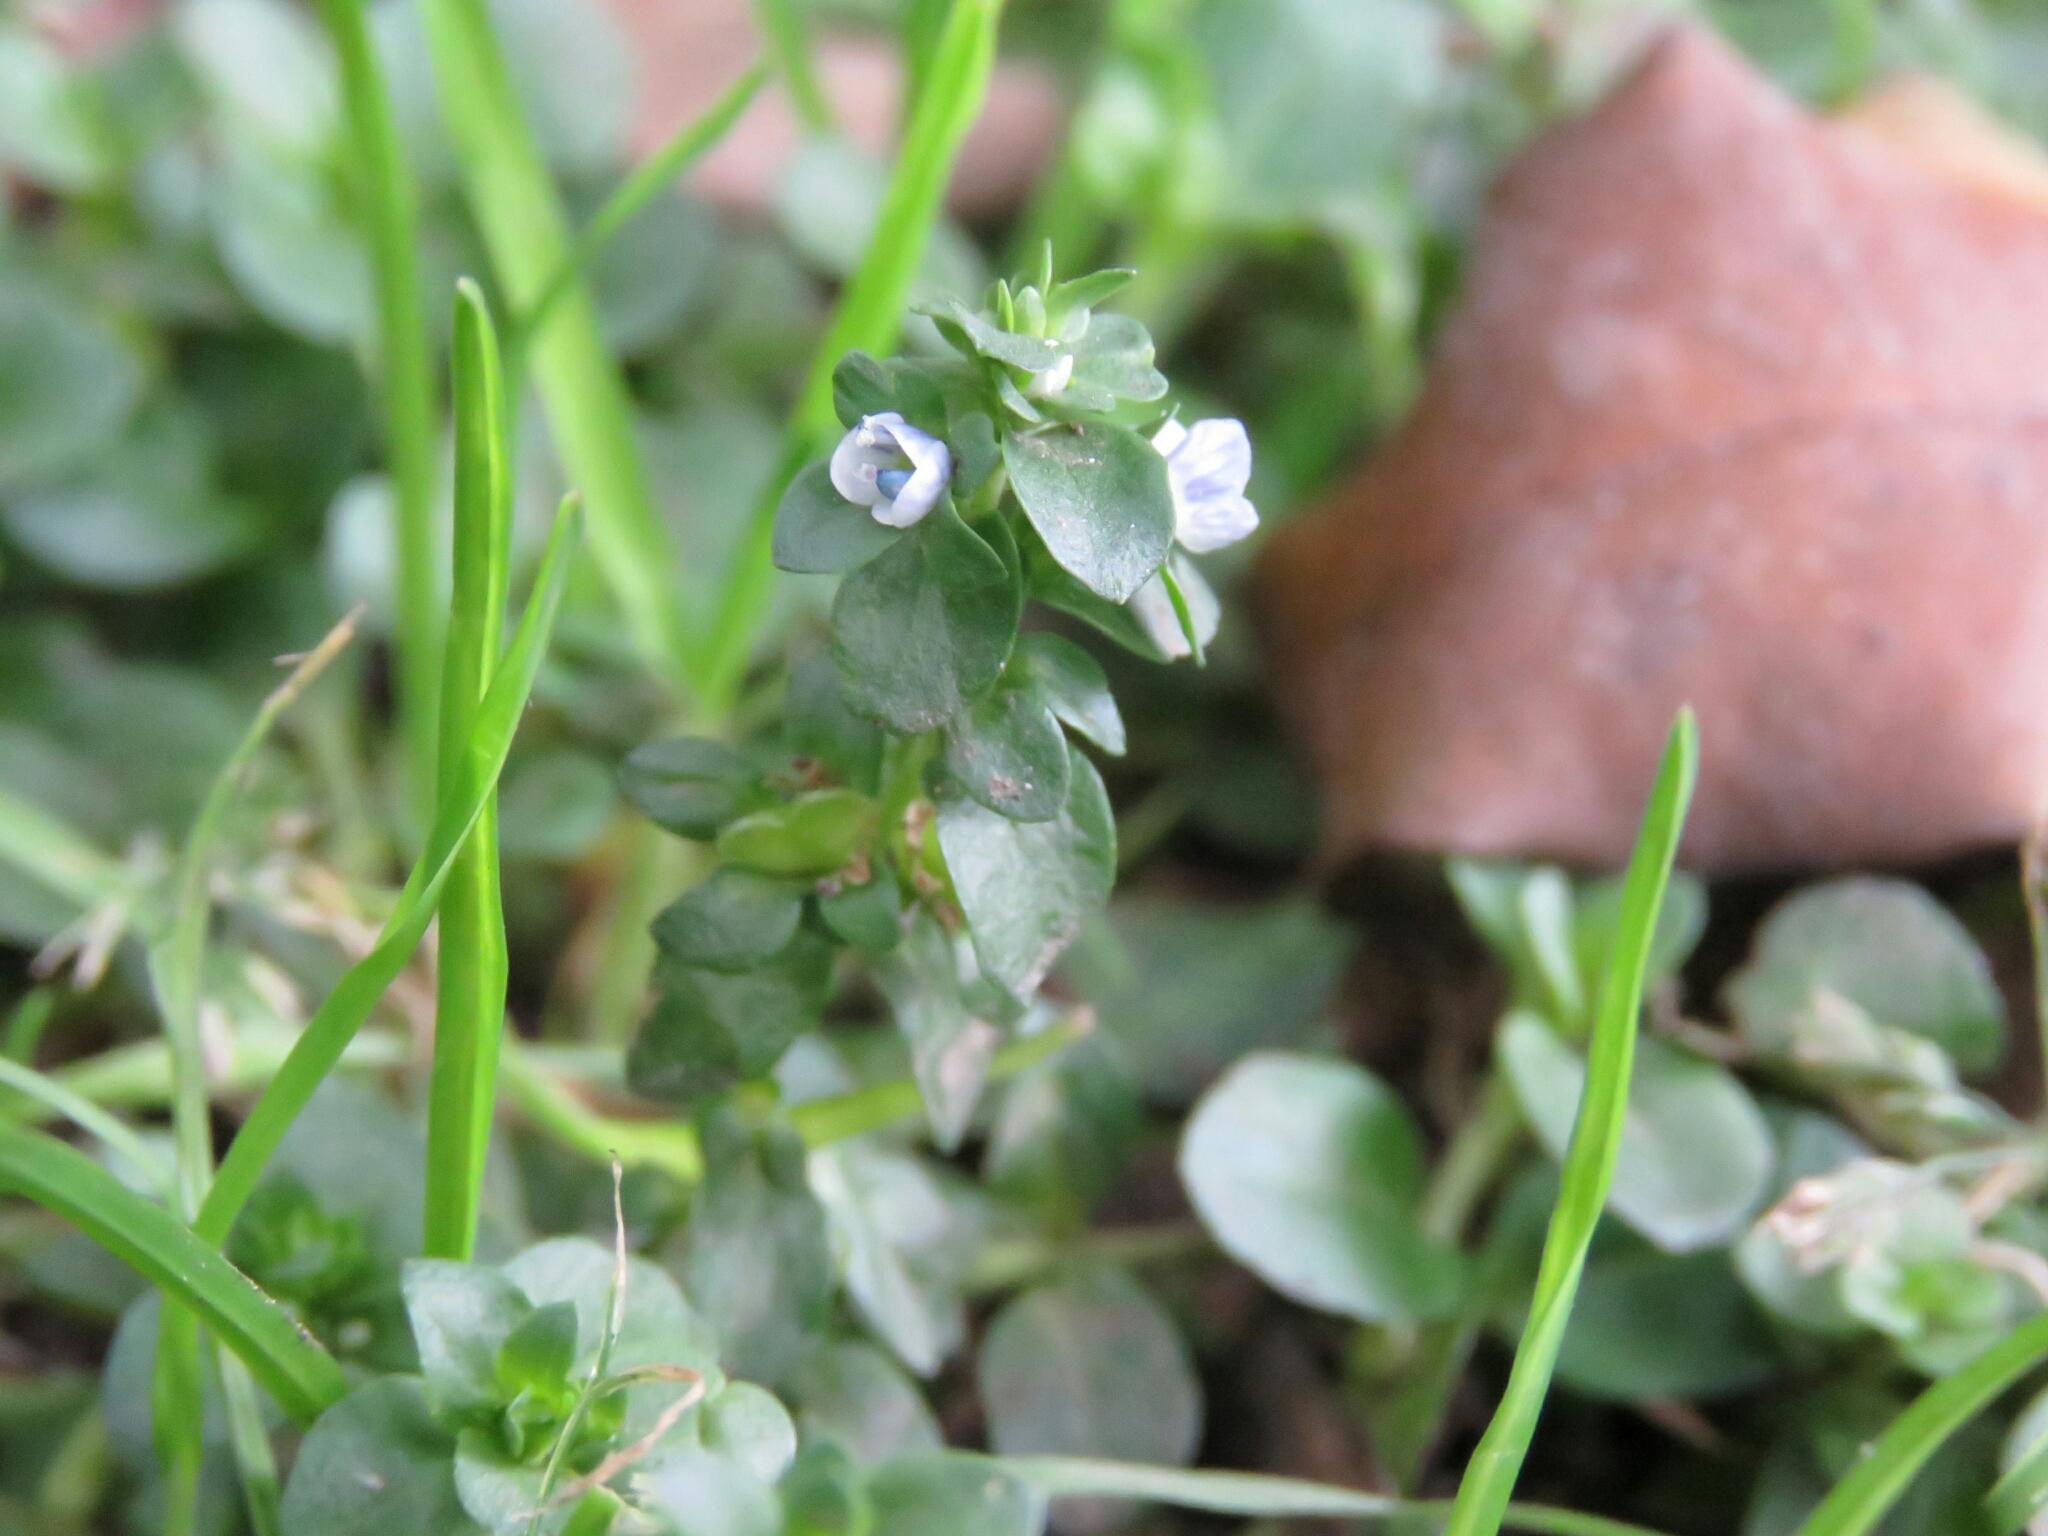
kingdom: Plantae
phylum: Tracheophyta
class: Magnoliopsida
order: Lamiales
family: Plantaginaceae
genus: Veronica
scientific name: Veronica serpyllifolia
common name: Thyme-leaved speedwell
